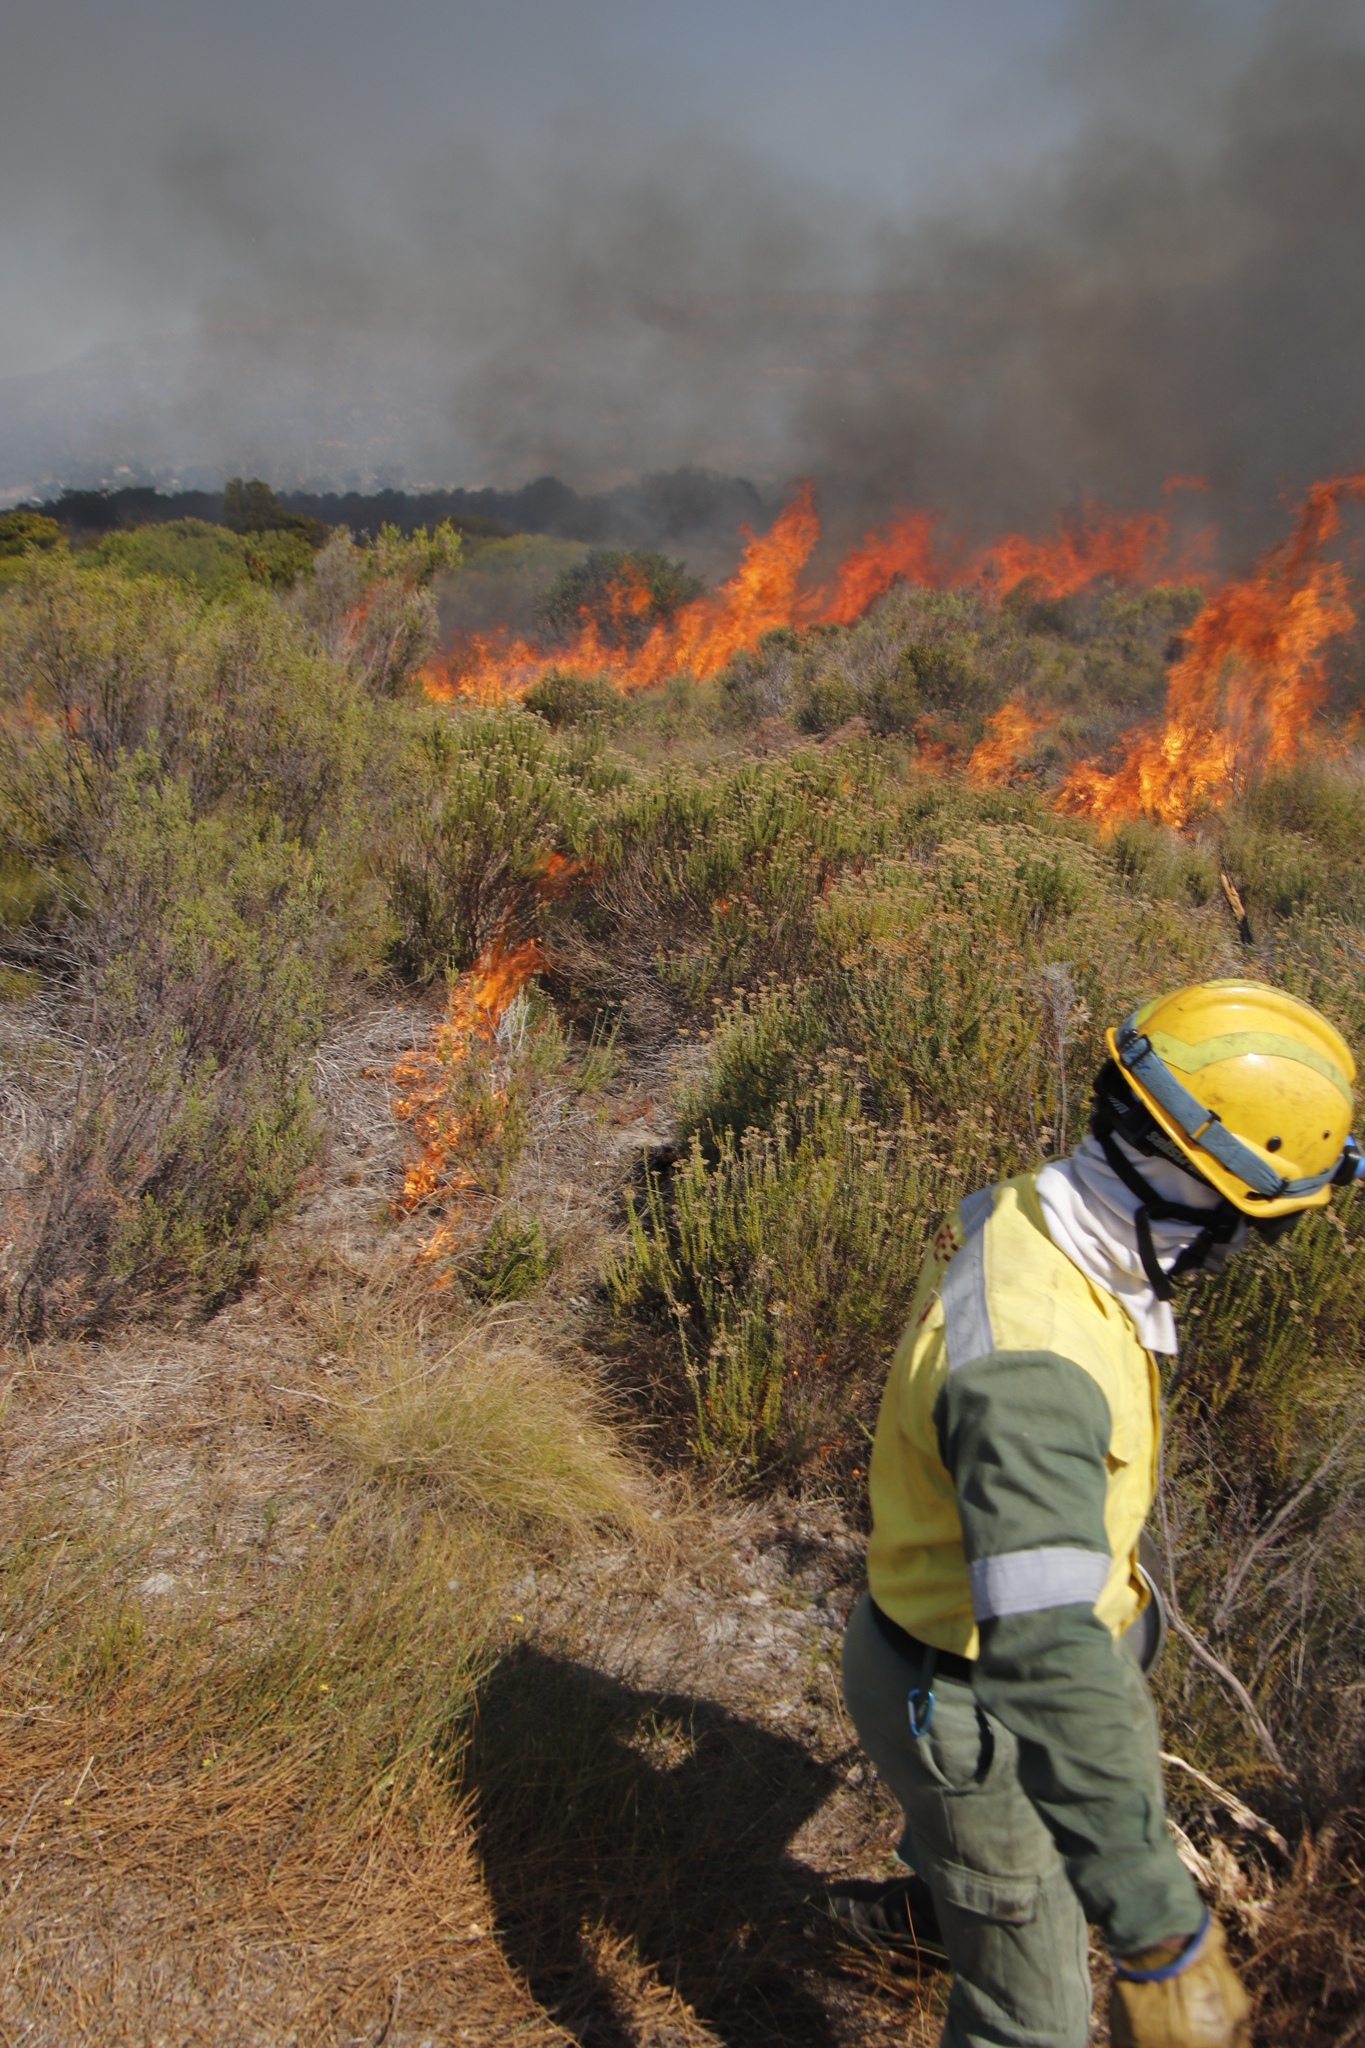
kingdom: Plantae
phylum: Tracheophyta
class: Magnoliopsida
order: Asterales
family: Asteraceae
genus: Metalasia
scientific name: Metalasia densa
